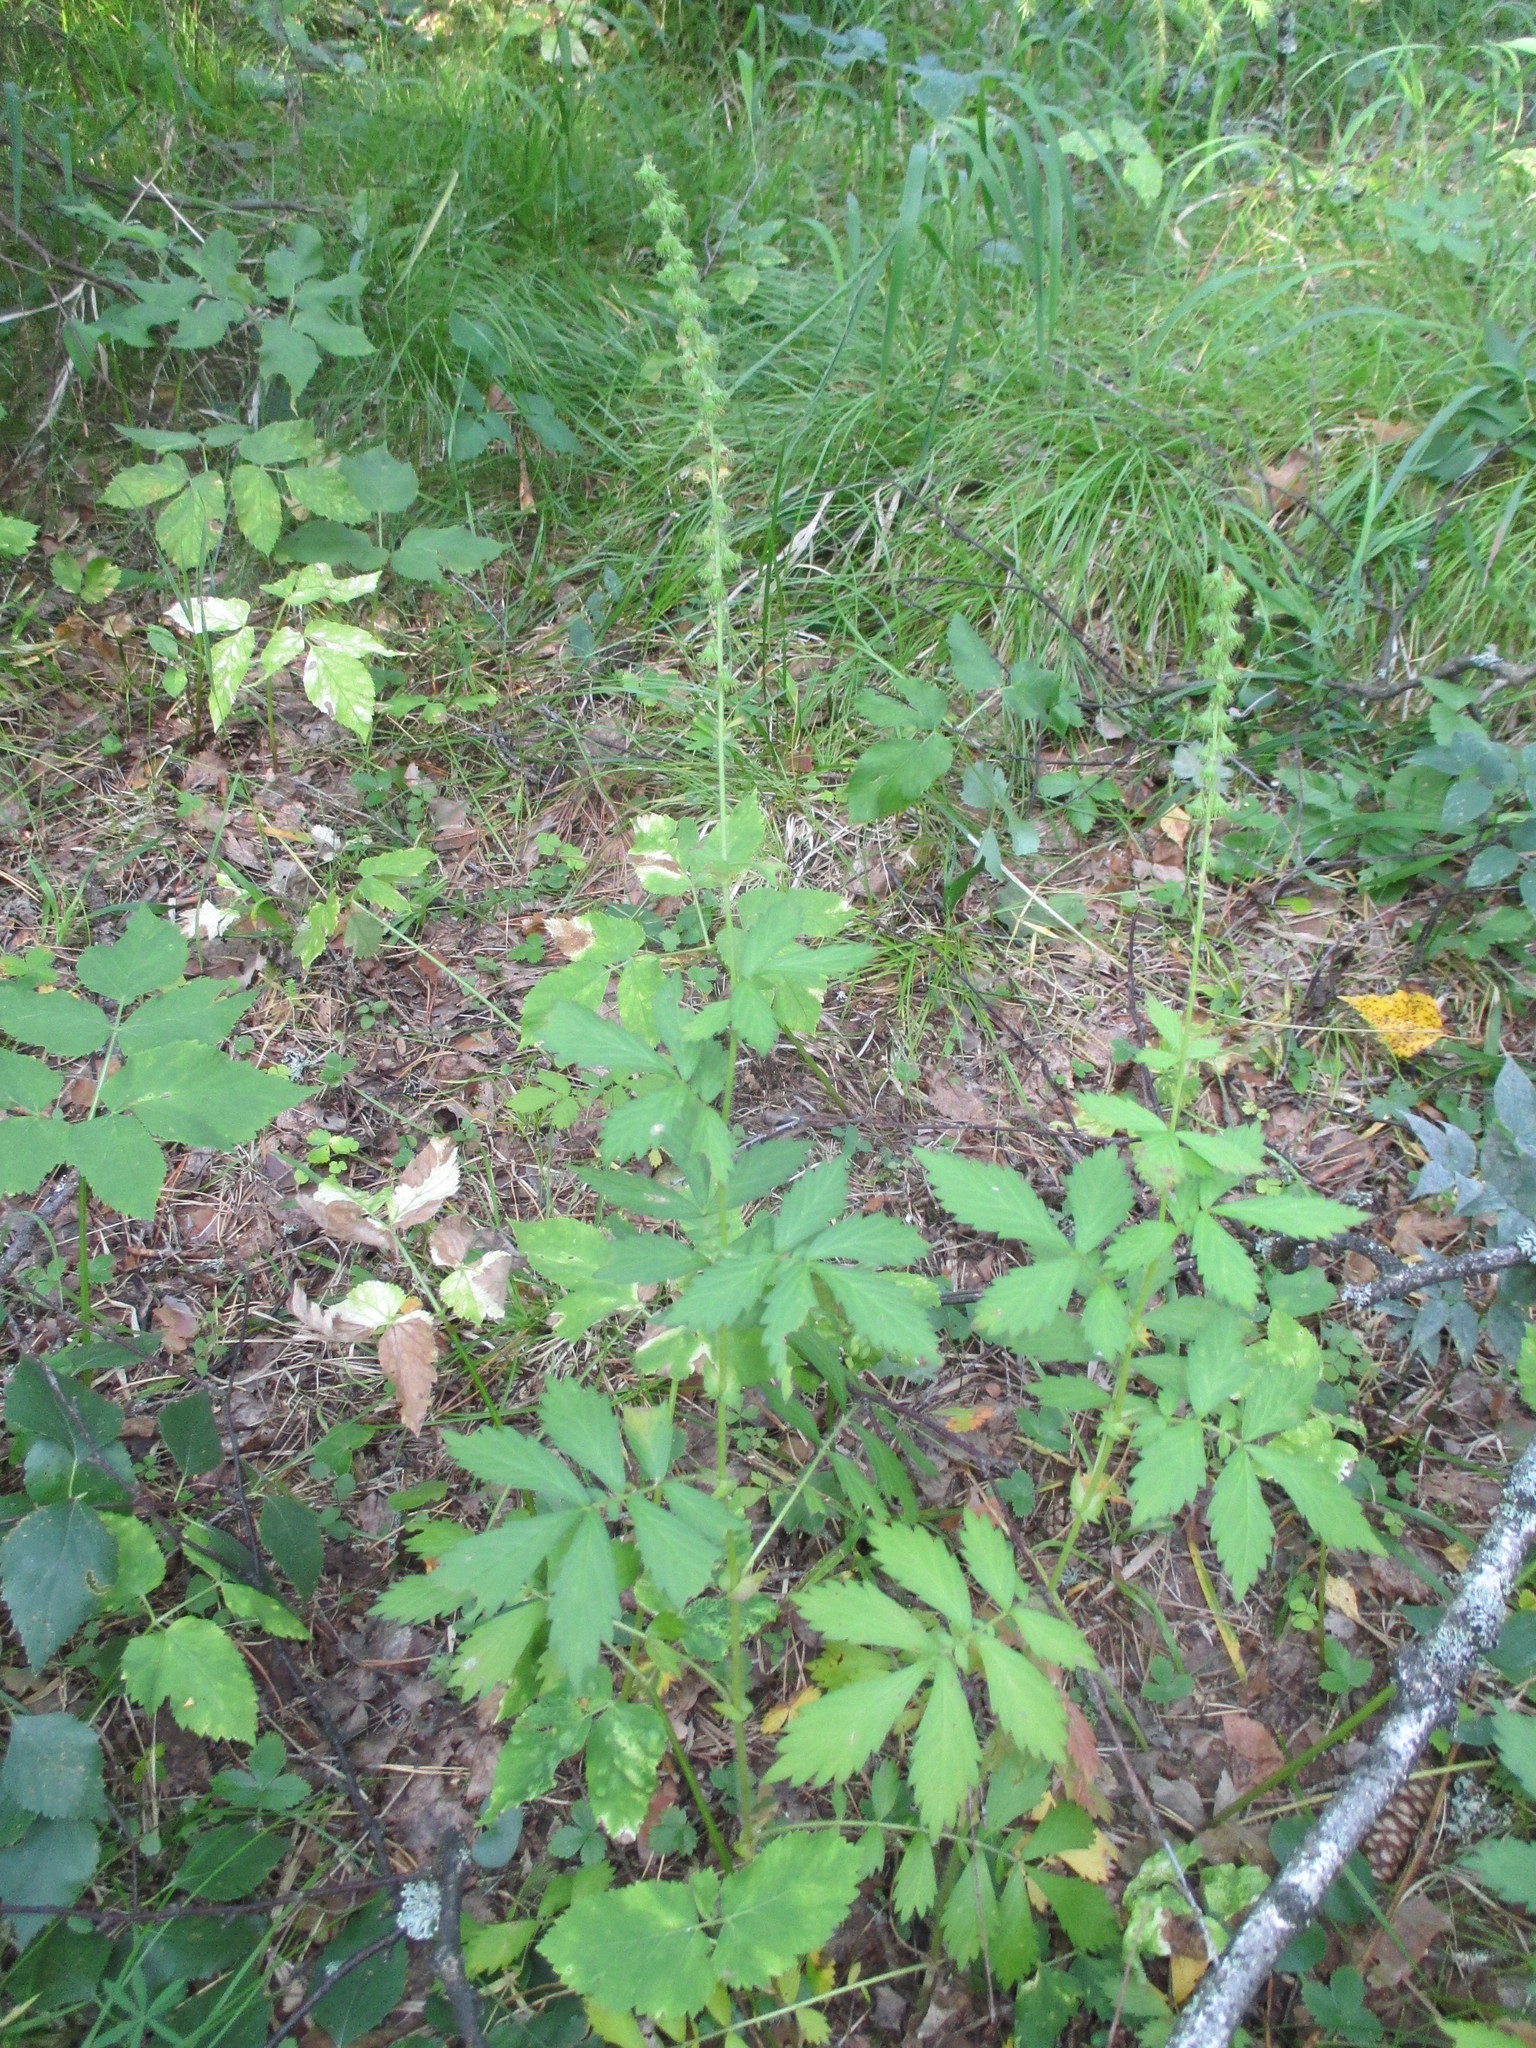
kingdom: Plantae
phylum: Tracheophyta
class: Magnoliopsida
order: Rosales
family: Rosaceae
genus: Agrimonia
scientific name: Agrimonia pilosa
